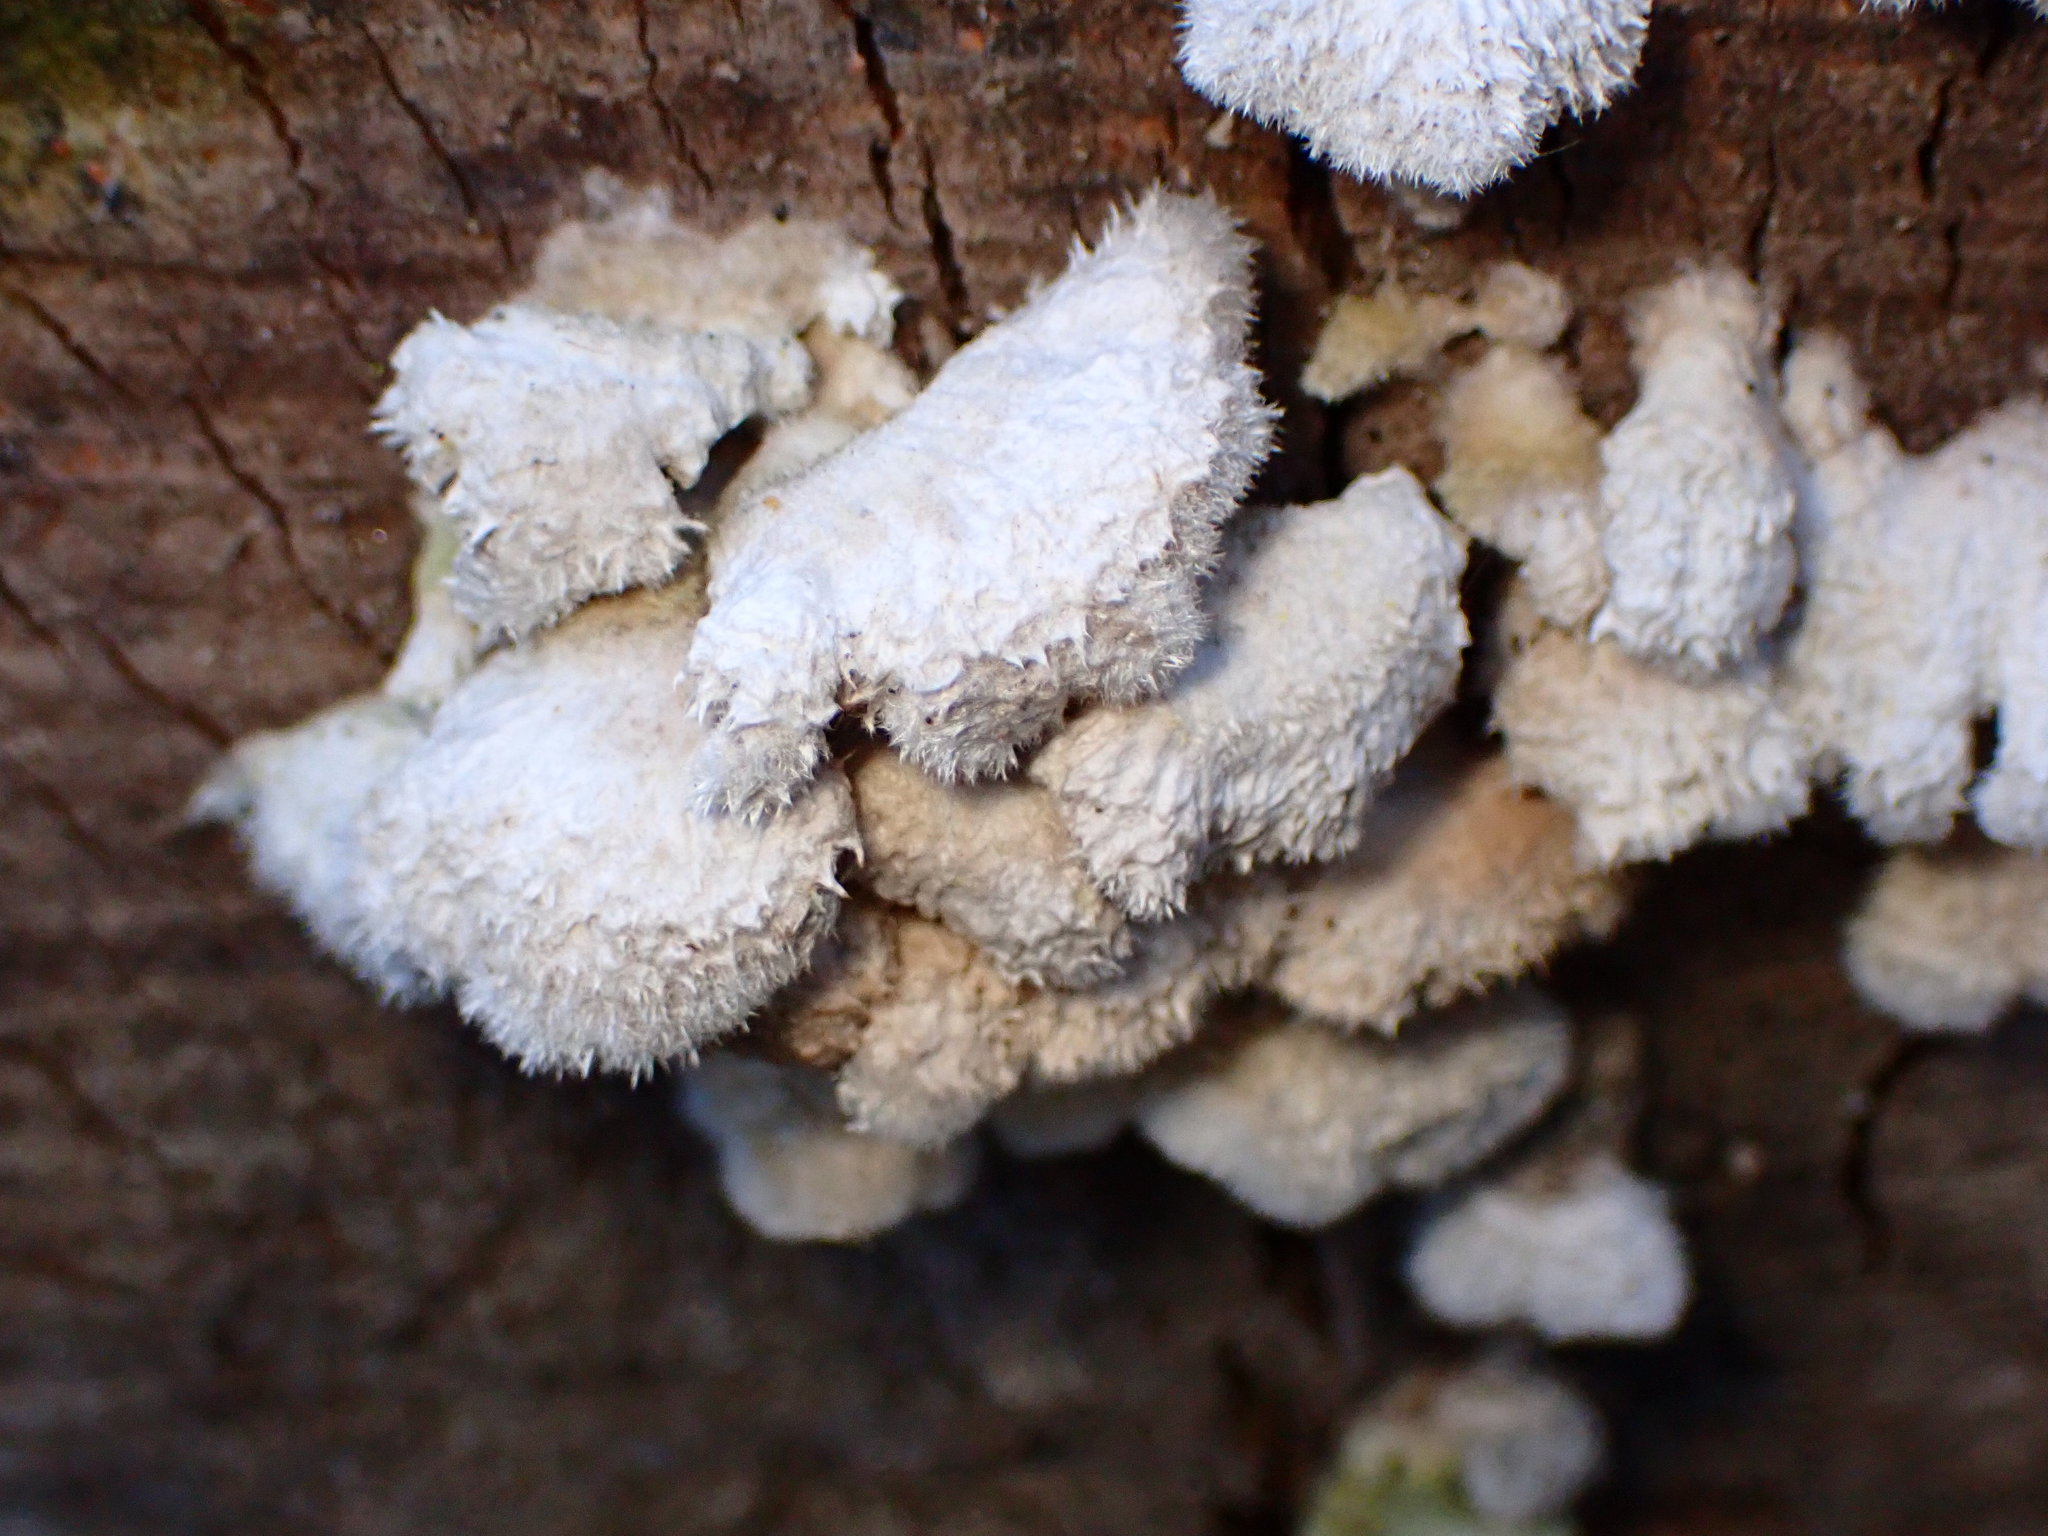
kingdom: Fungi
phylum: Basidiomycota
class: Agaricomycetes
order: Agaricales
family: Schizophyllaceae
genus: Schizophyllum
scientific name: Schizophyllum commune
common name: Common porecrust
